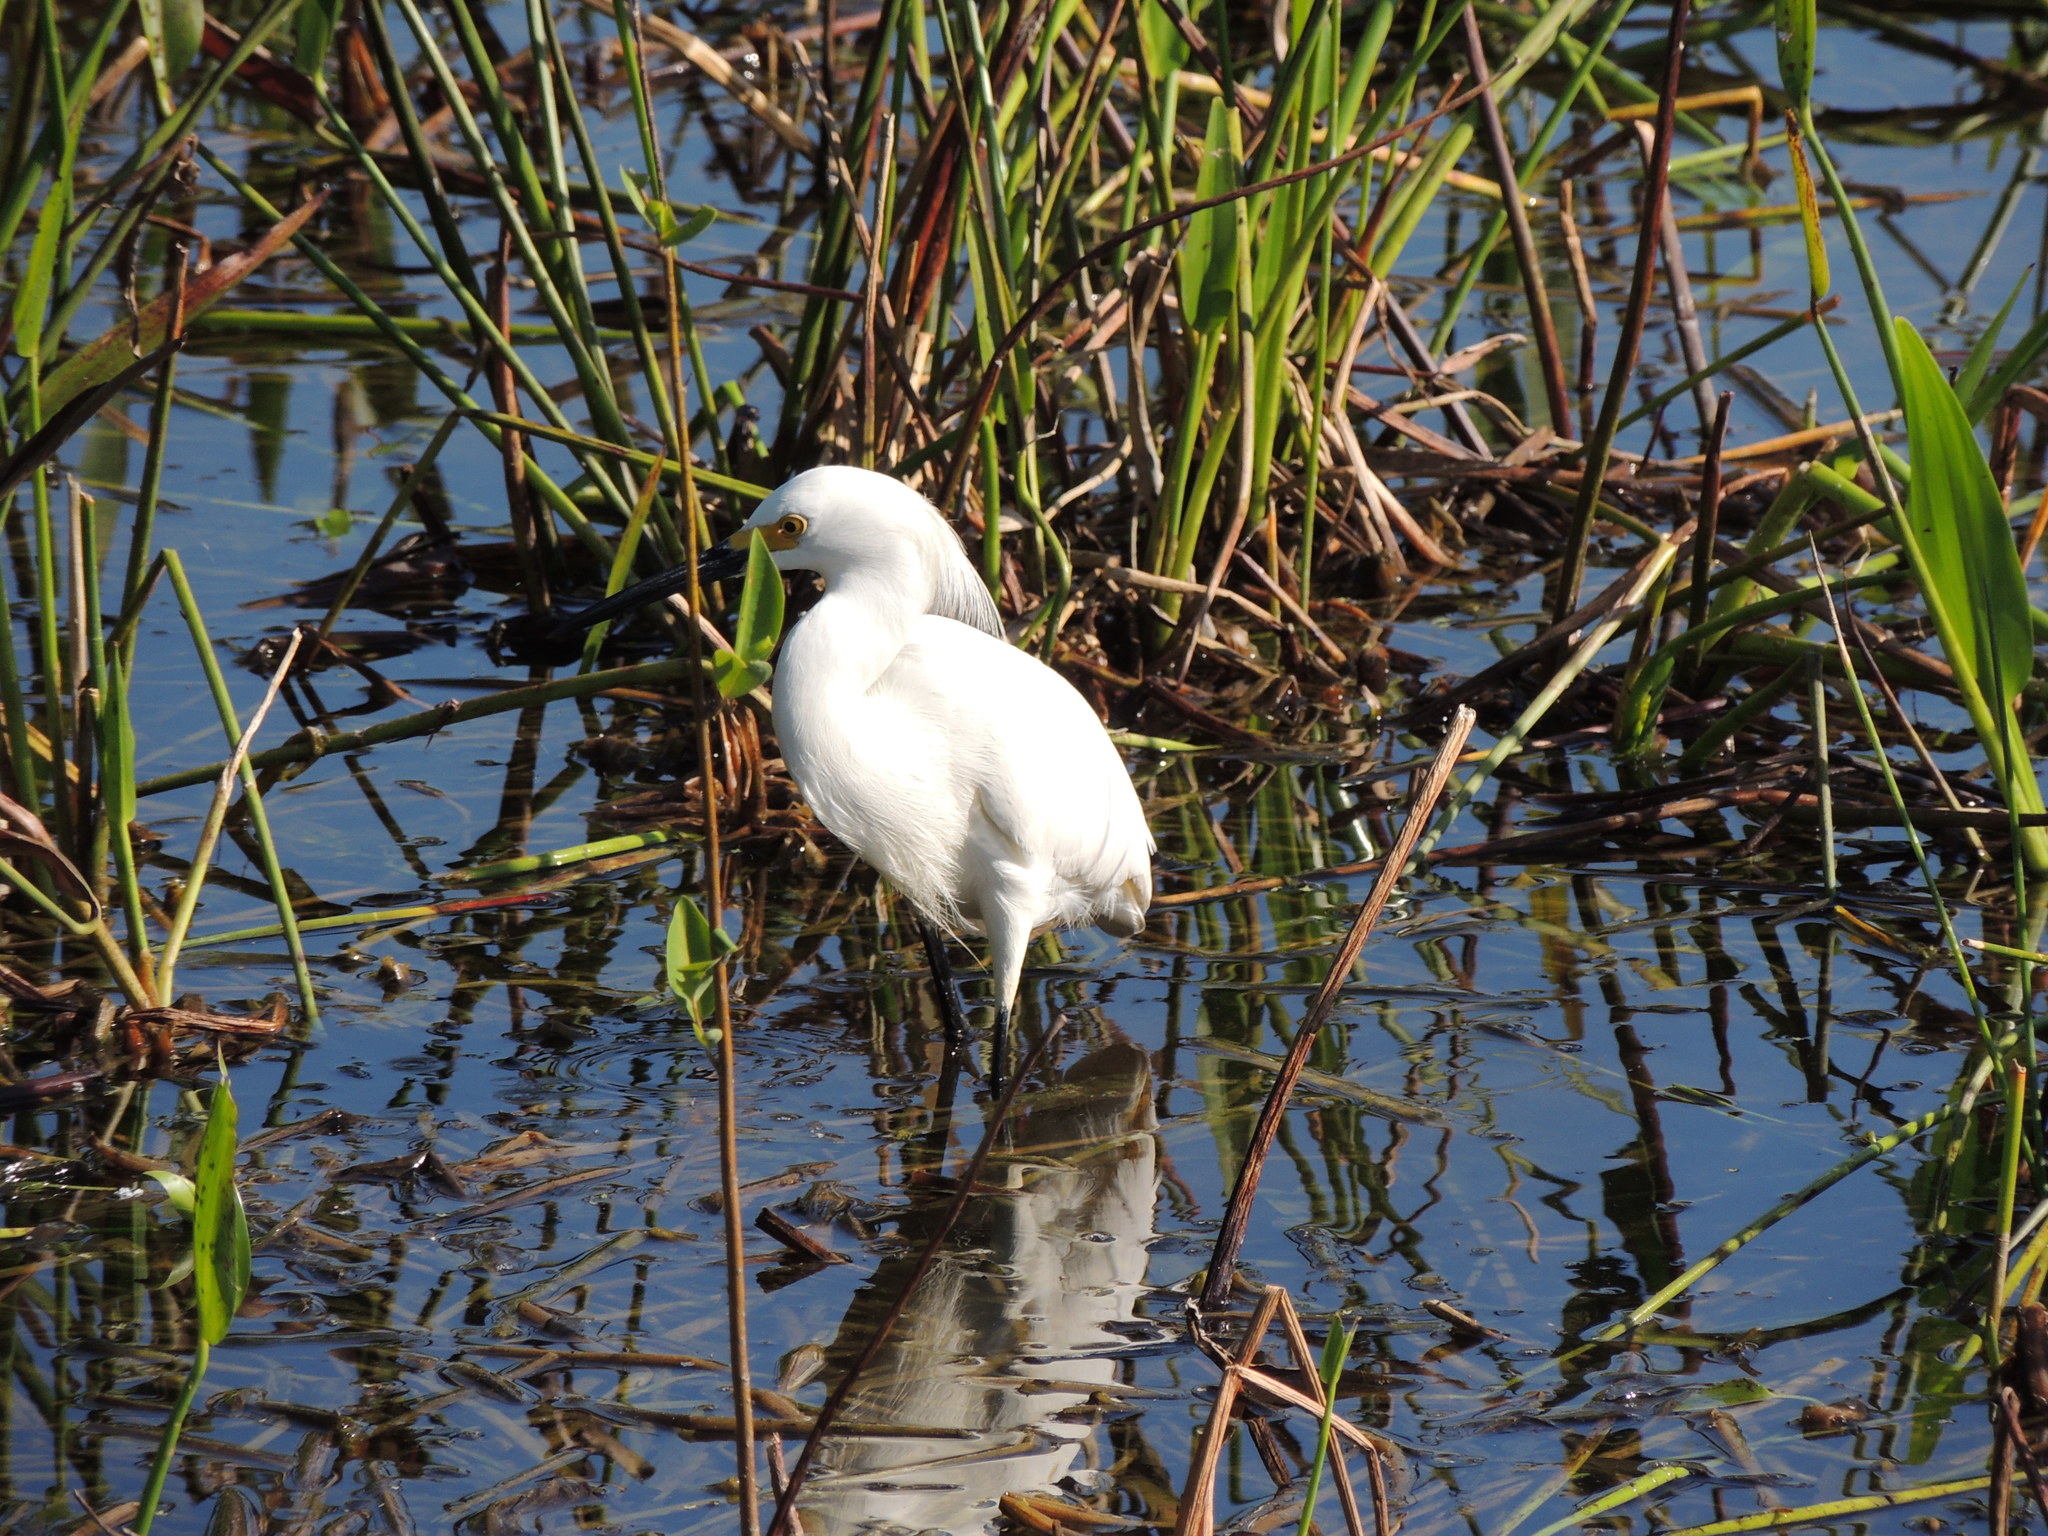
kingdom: Animalia
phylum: Chordata
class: Aves
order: Pelecaniformes
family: Ardeidae
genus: Egretta
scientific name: Egretta thula
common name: Snowy egret
